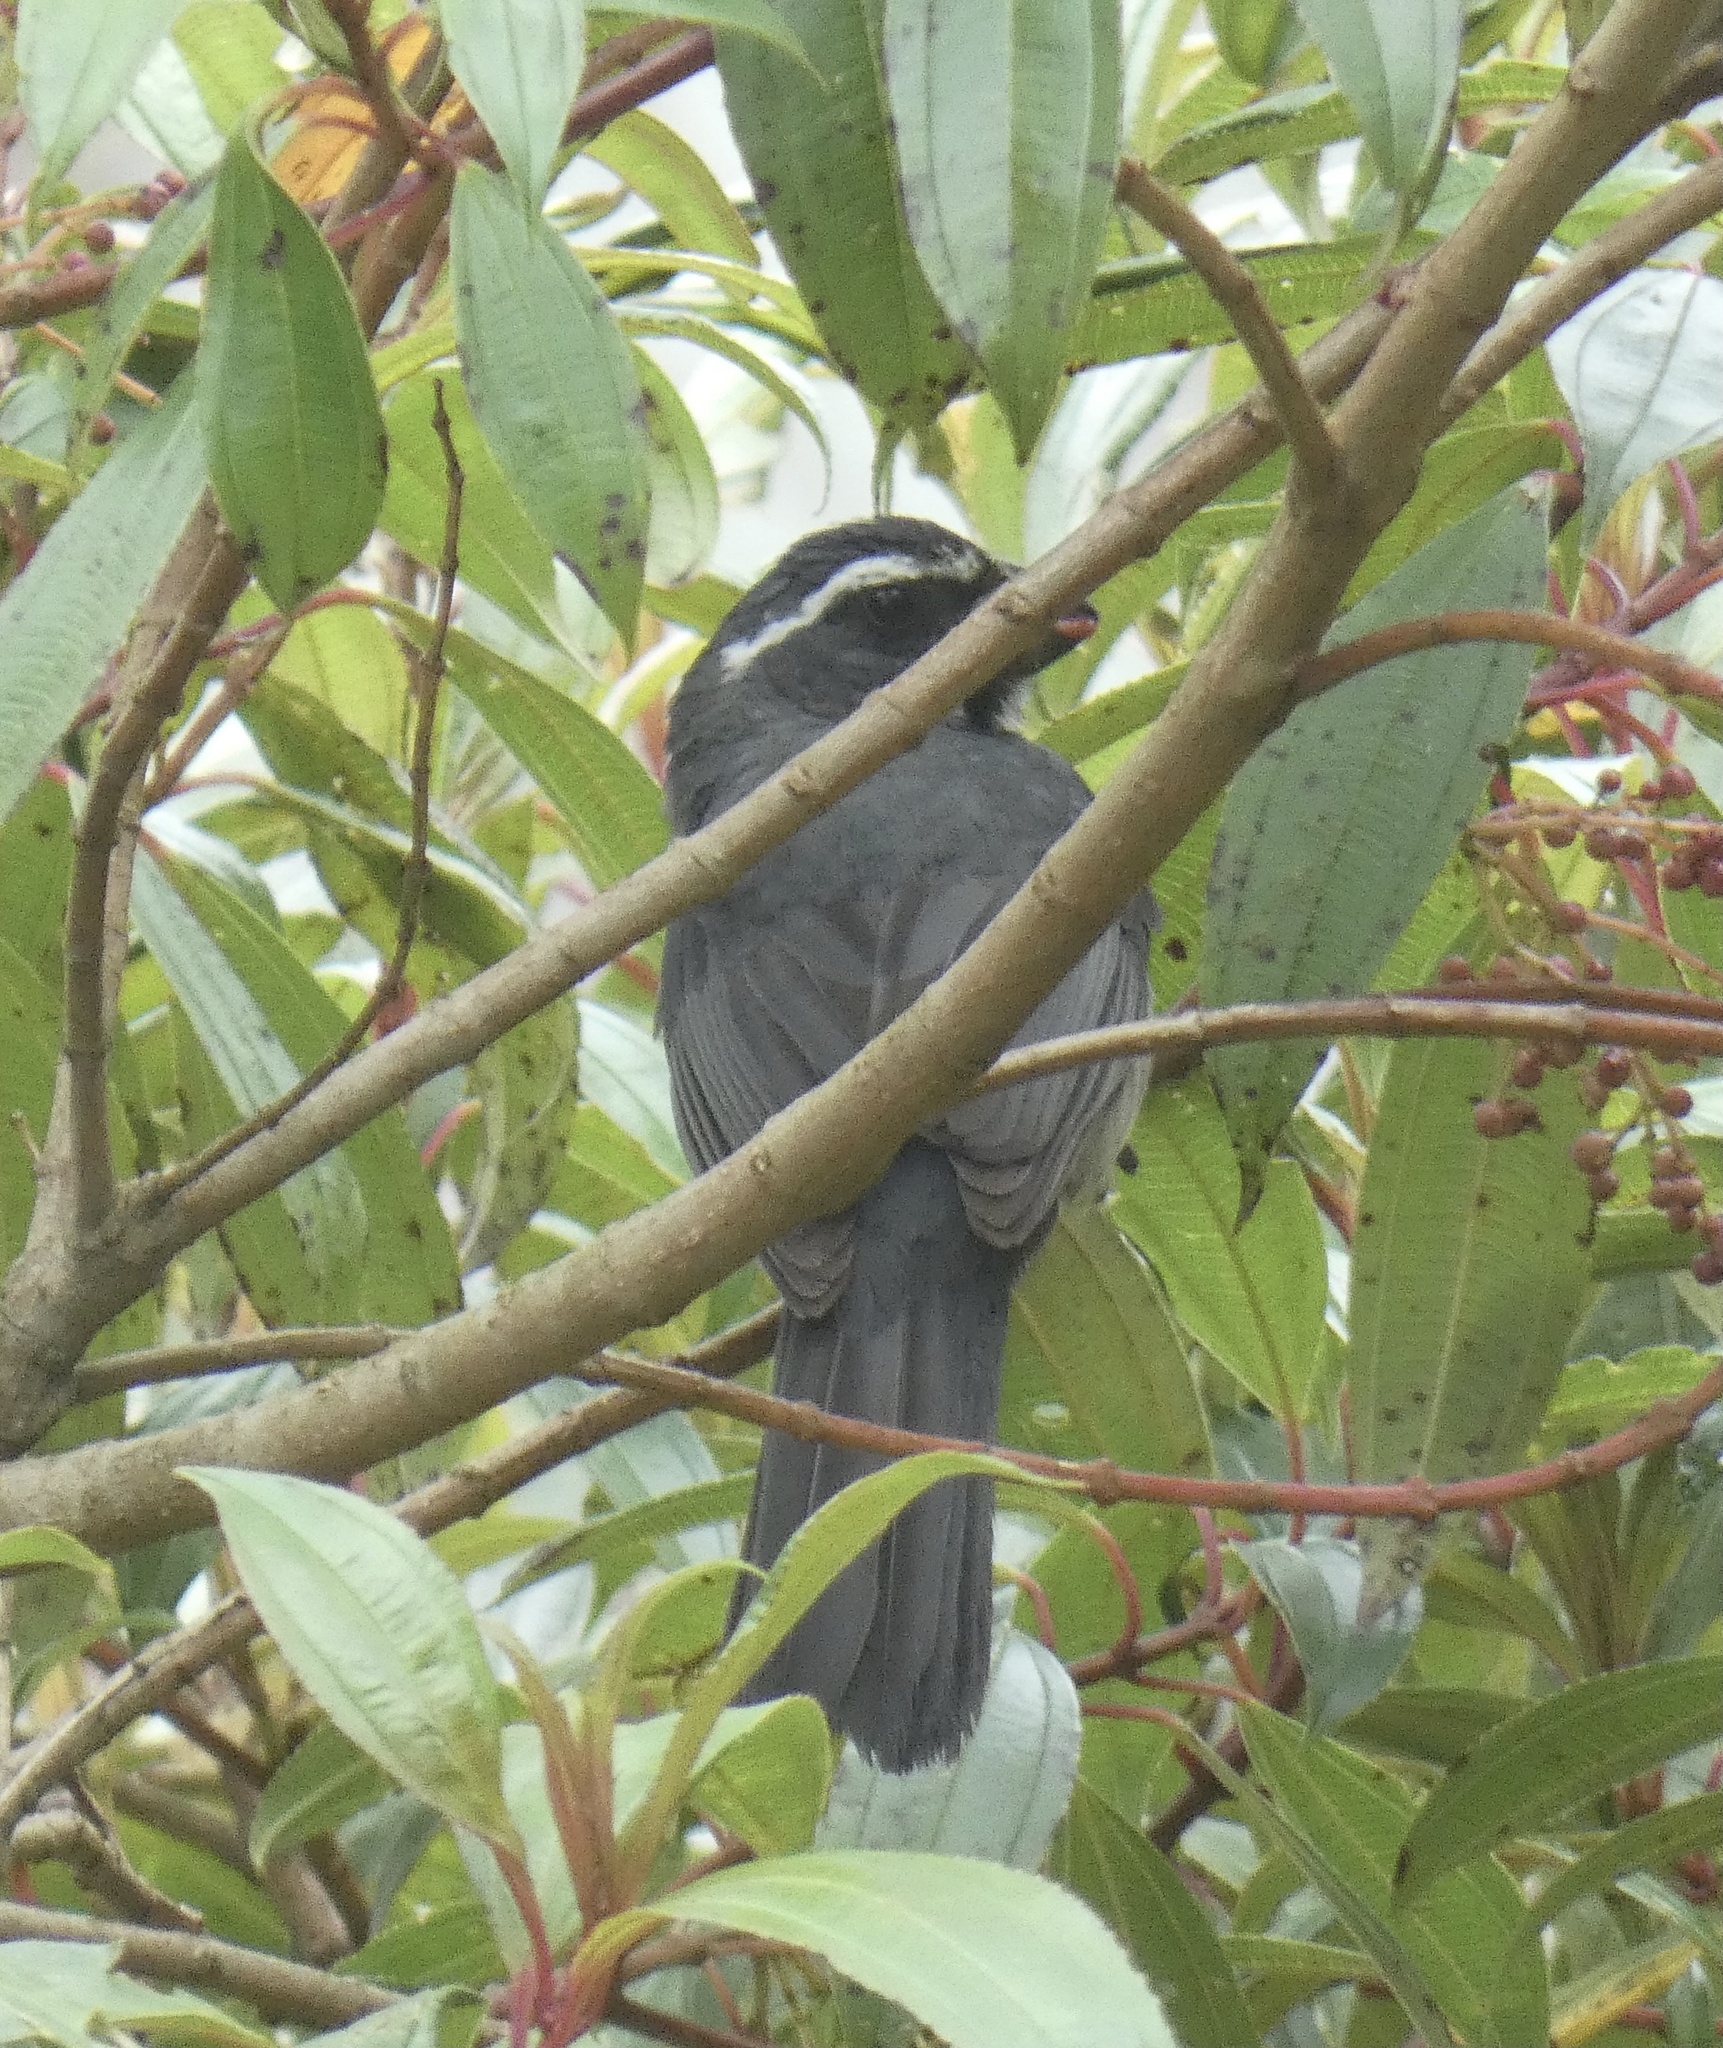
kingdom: Animalia
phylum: Chordata
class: Aves
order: Passeriformes
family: Thraupidae
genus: Saltator
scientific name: Saltator maxillosus
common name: Thick-billed saltator
